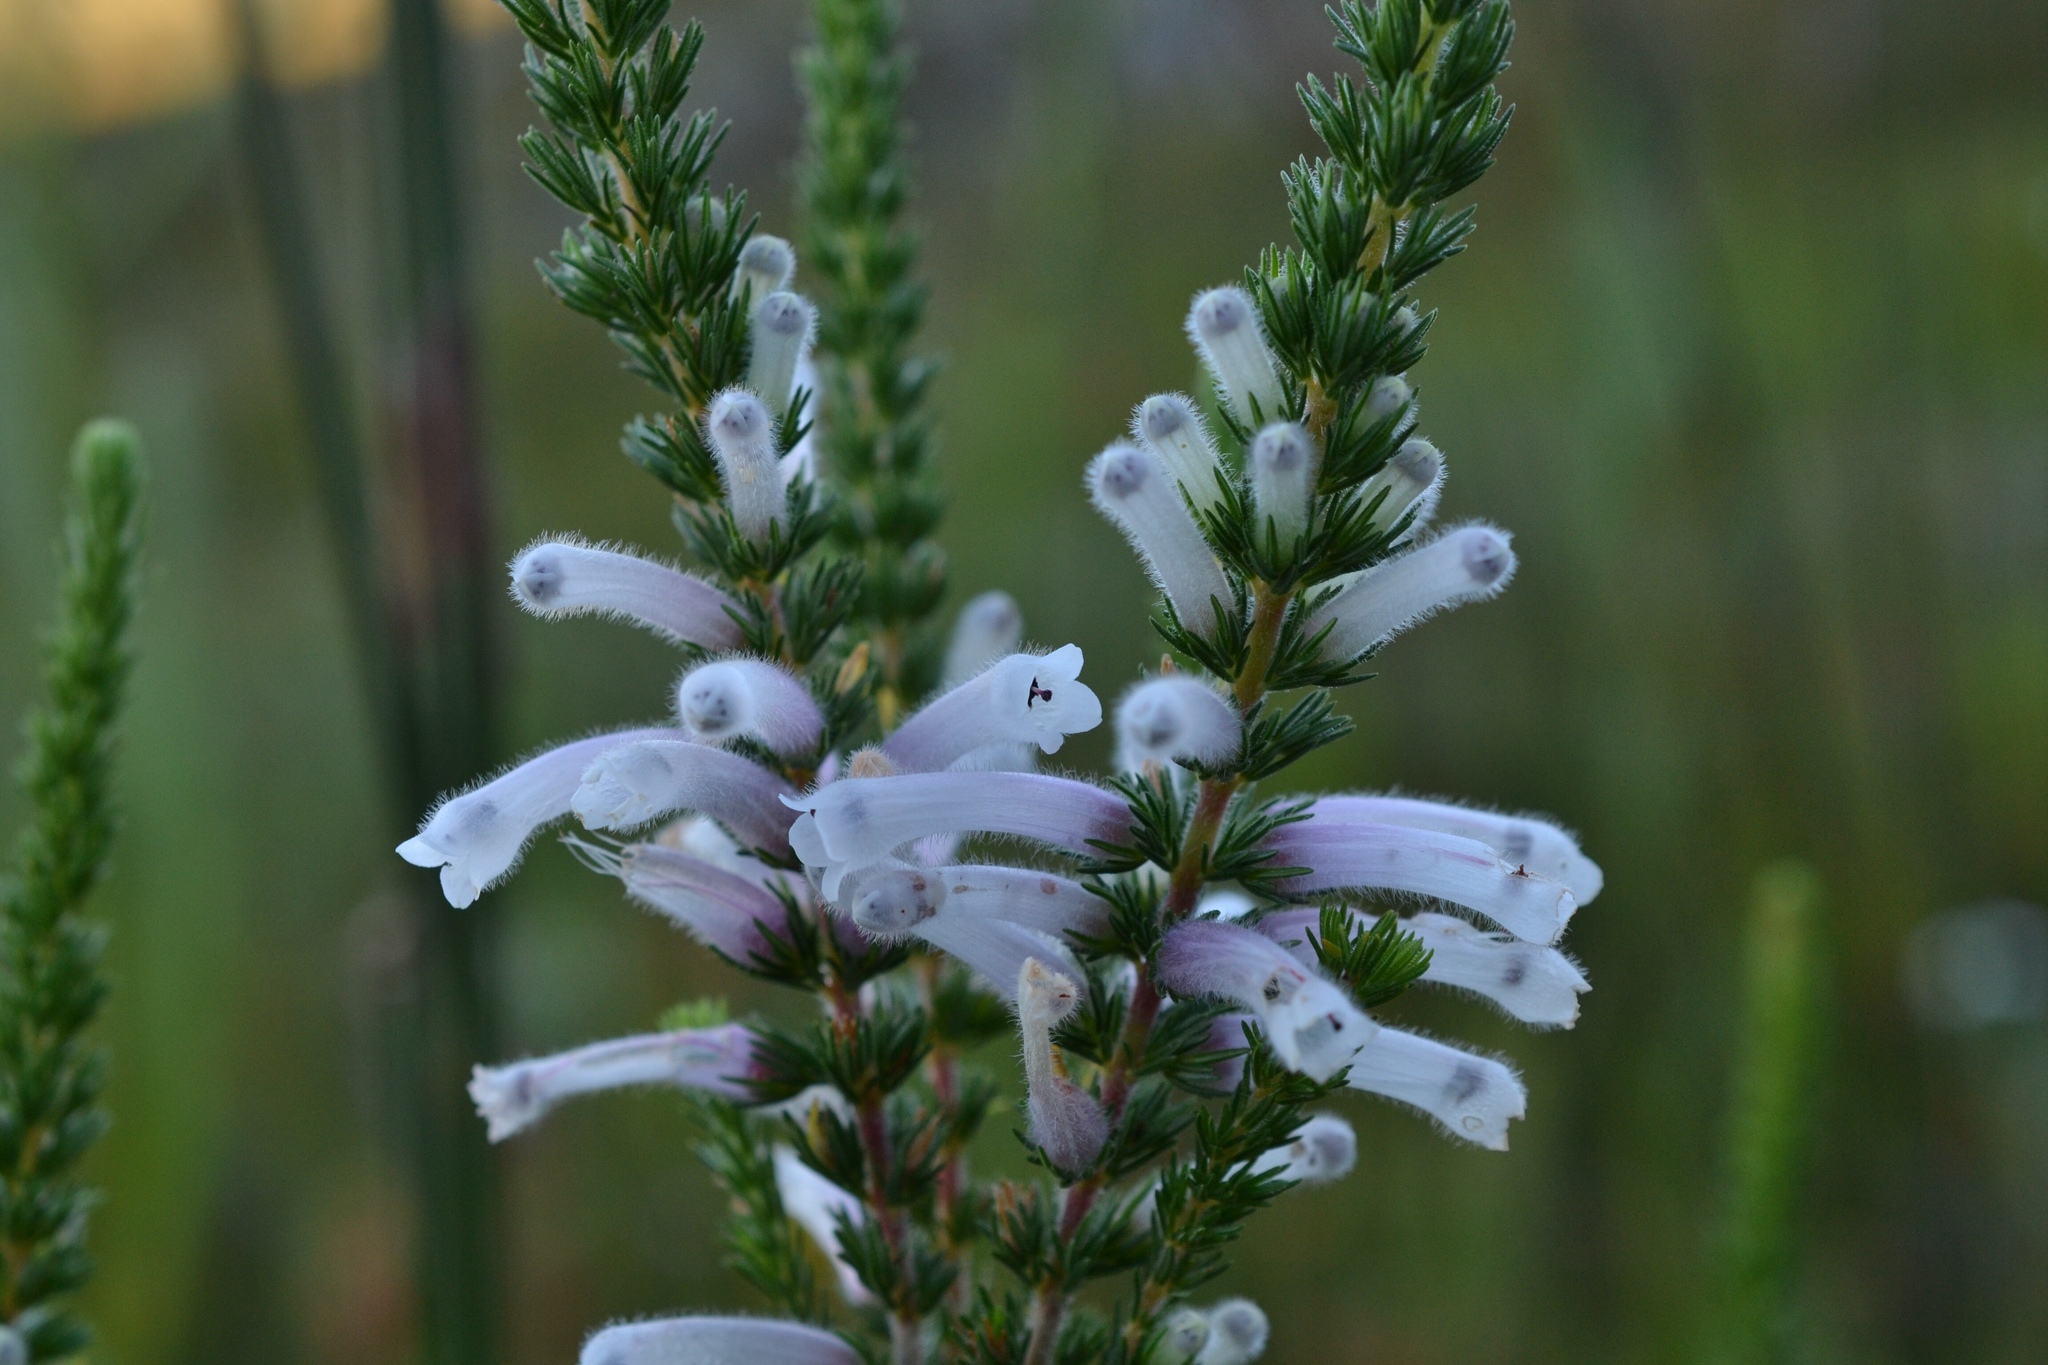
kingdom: Plantae
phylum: Tracheophyta
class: Magnoliopsida
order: Ericales
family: Ericaceae
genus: Erica
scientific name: Erica perspicua
